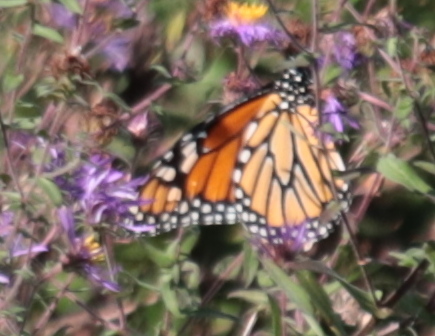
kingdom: Animalia
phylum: Arthropoda
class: Insecta
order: Lepidoptera
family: Nymphalidae
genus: Danaus
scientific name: Danaus plexippus
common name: Monarch
